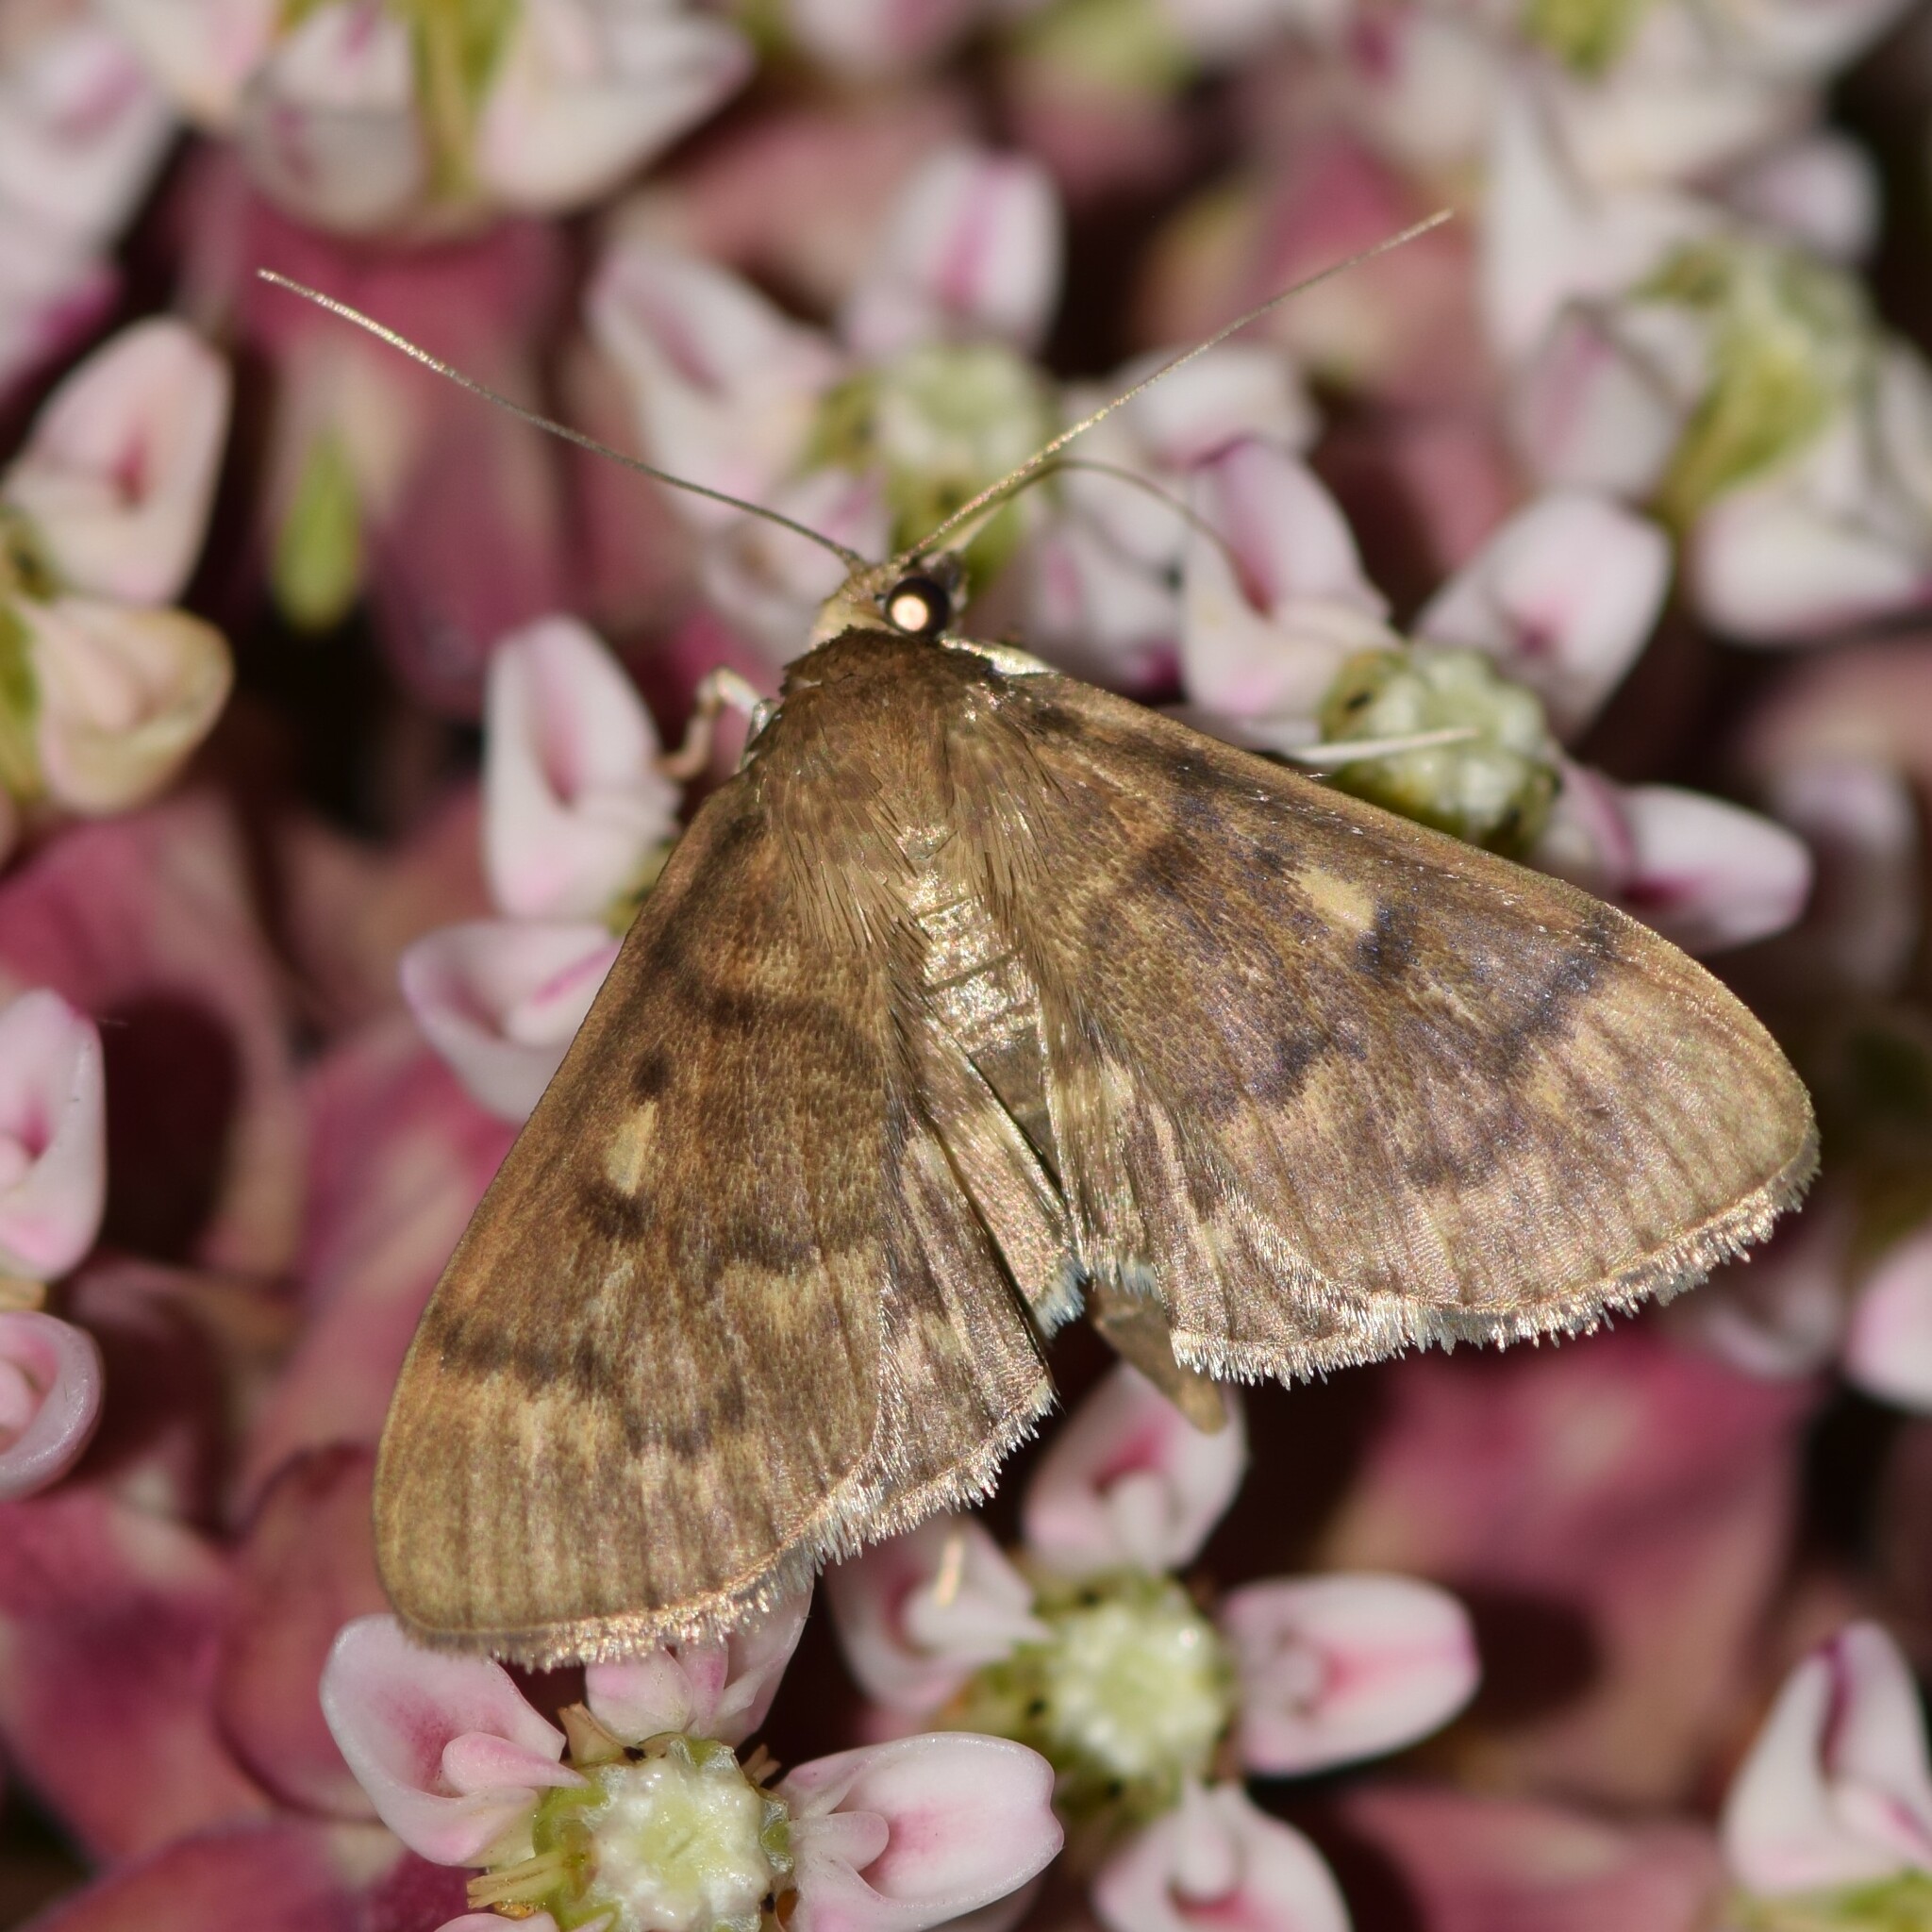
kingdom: Animalia
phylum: Arthropoda
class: Insecta
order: Lepidoptera
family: Crambidae
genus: Herpetogramma
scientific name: Herpetogramma aeglealis
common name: Serpentine webworm moth
